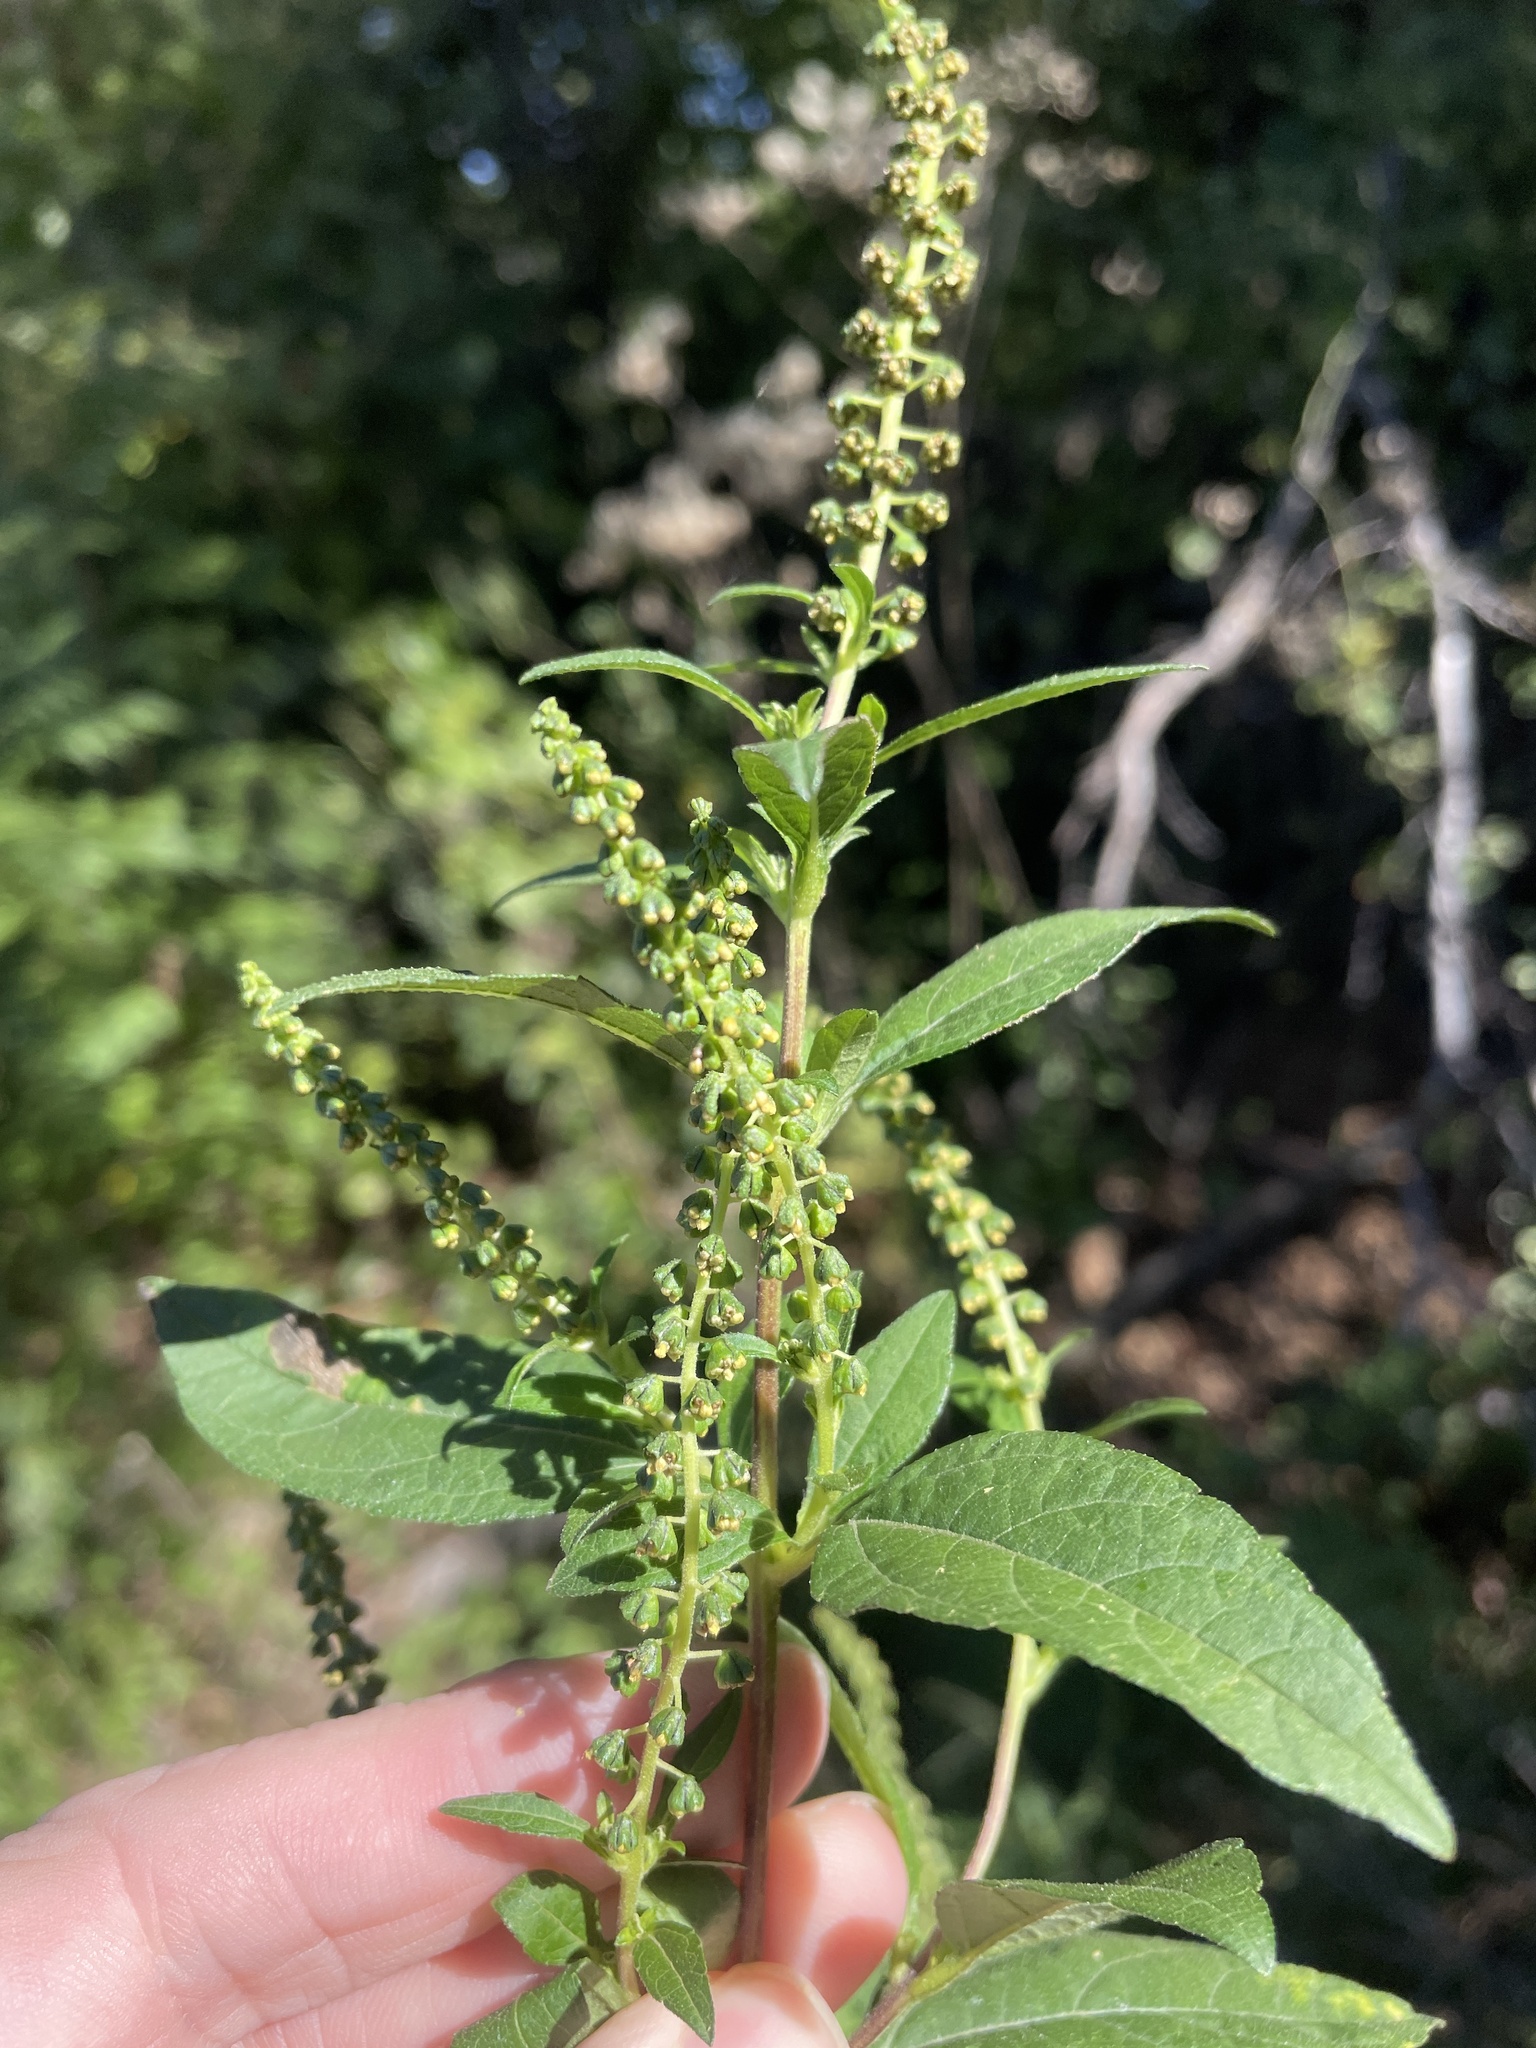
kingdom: Plantae
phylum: Tracheophyta
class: Magnoliopsida
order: Asterales
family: Asteraceae
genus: Ambrosia
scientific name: Ambrosia trifida
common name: Giant ragweed
